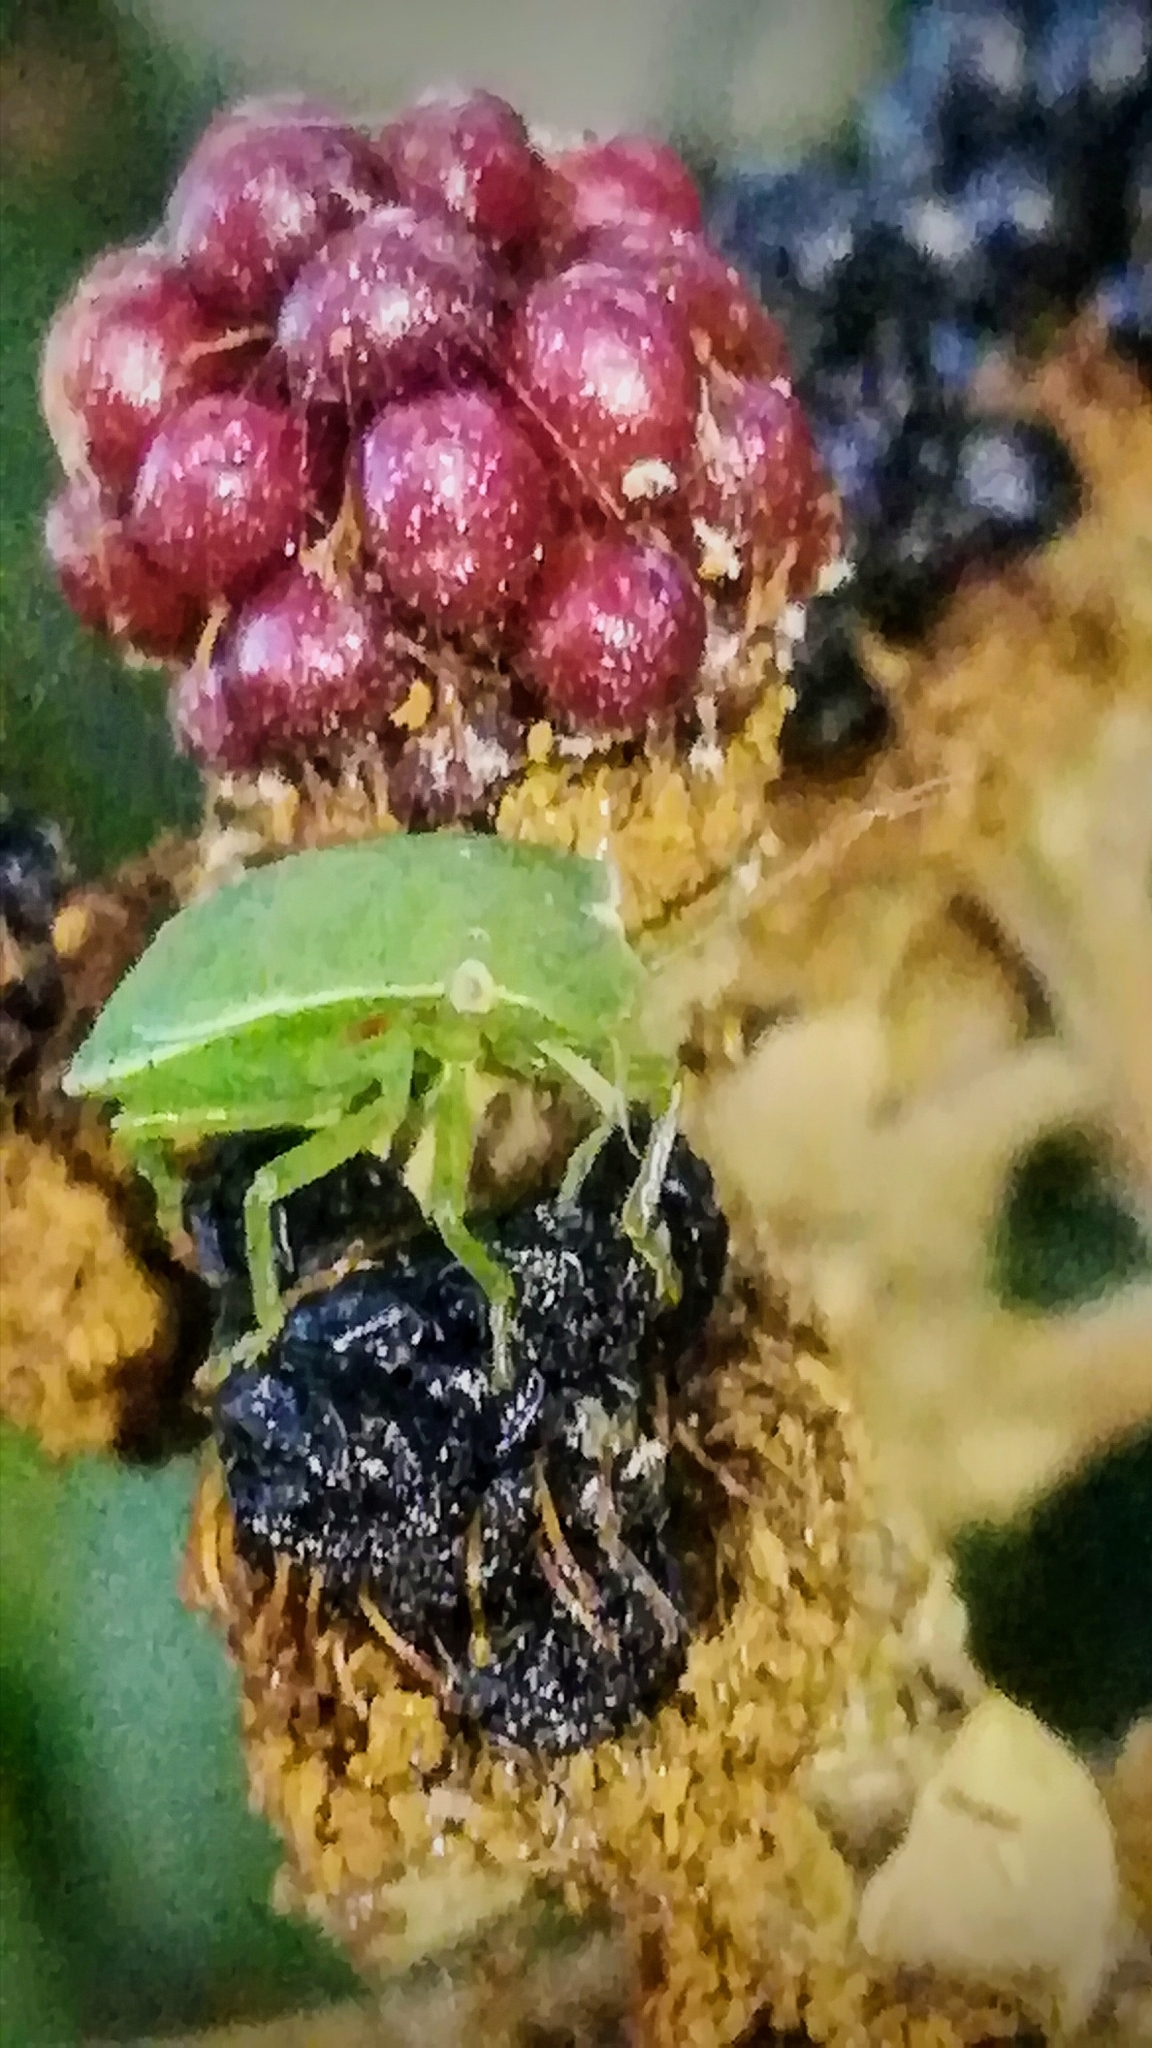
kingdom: Animalia
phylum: Arthropoda
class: Insecta
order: Hemiptera
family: Pentatomidae
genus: Acrosternum
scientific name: Acrosternum heegeri
